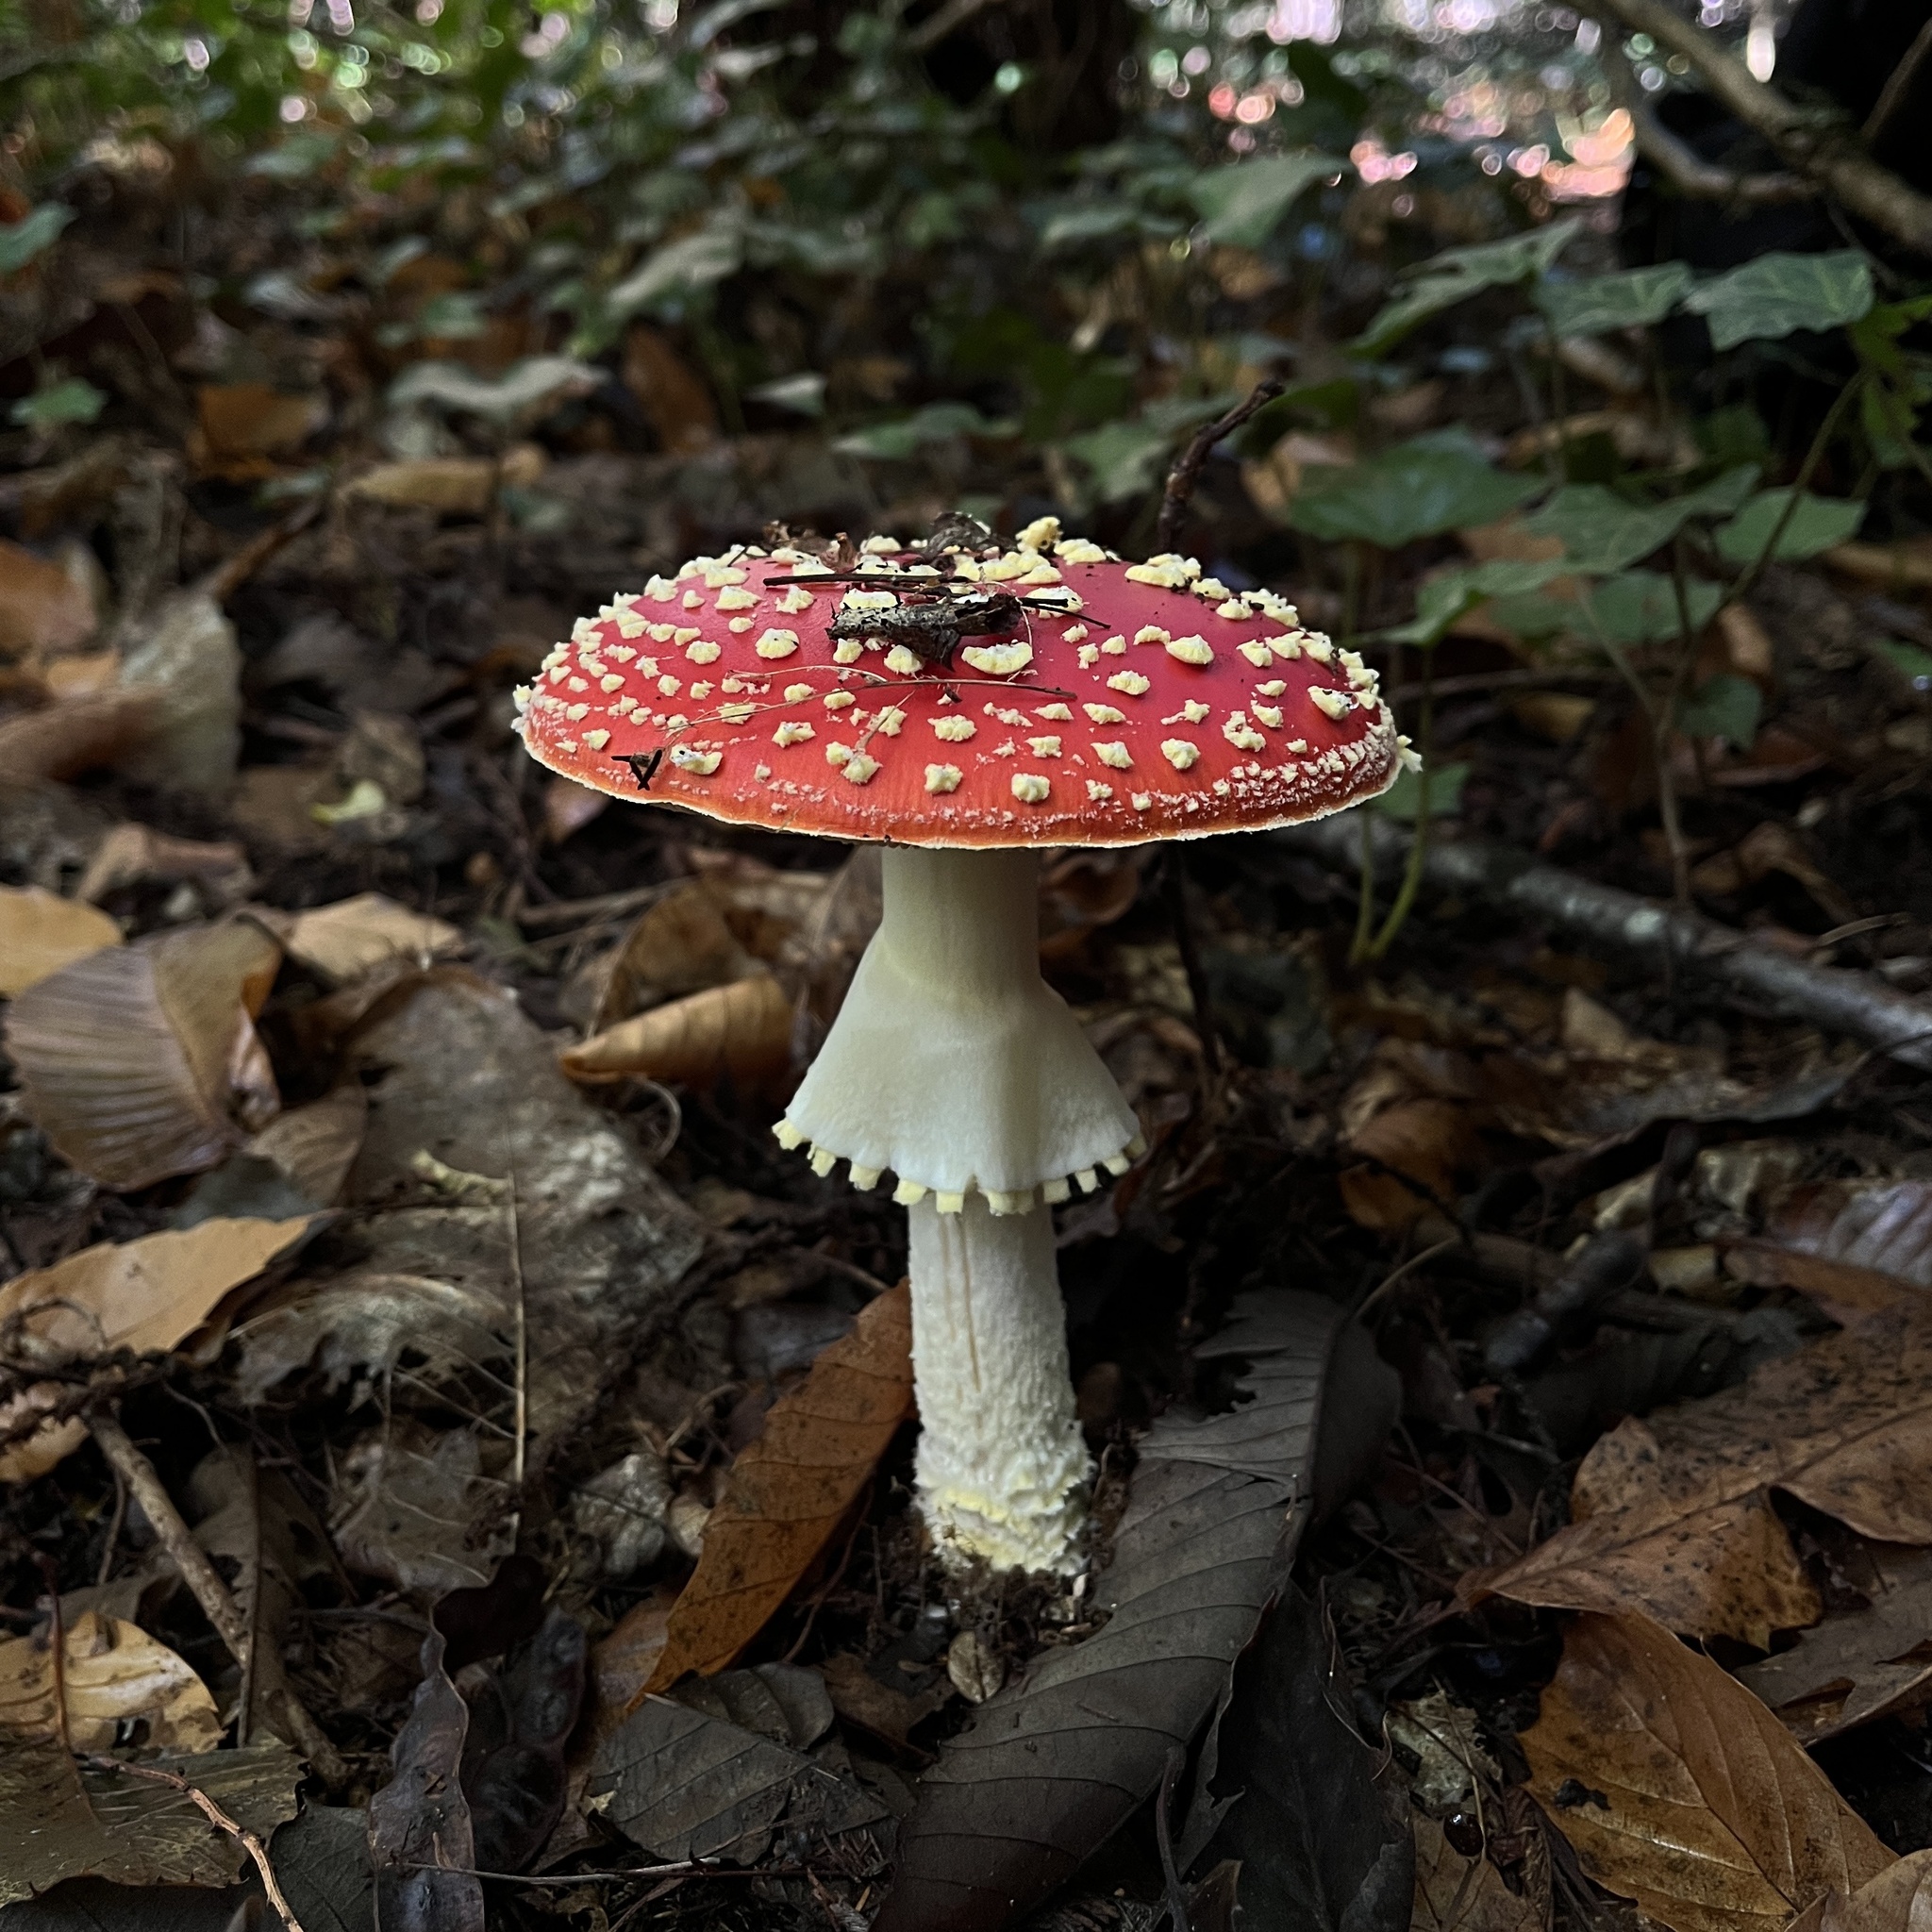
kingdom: Fungi
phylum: Basidiomycota
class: Agaricomycetes
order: Agaricales
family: Amanitaceae
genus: Amanita
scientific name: Amanita muscaria
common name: Fly agaric
